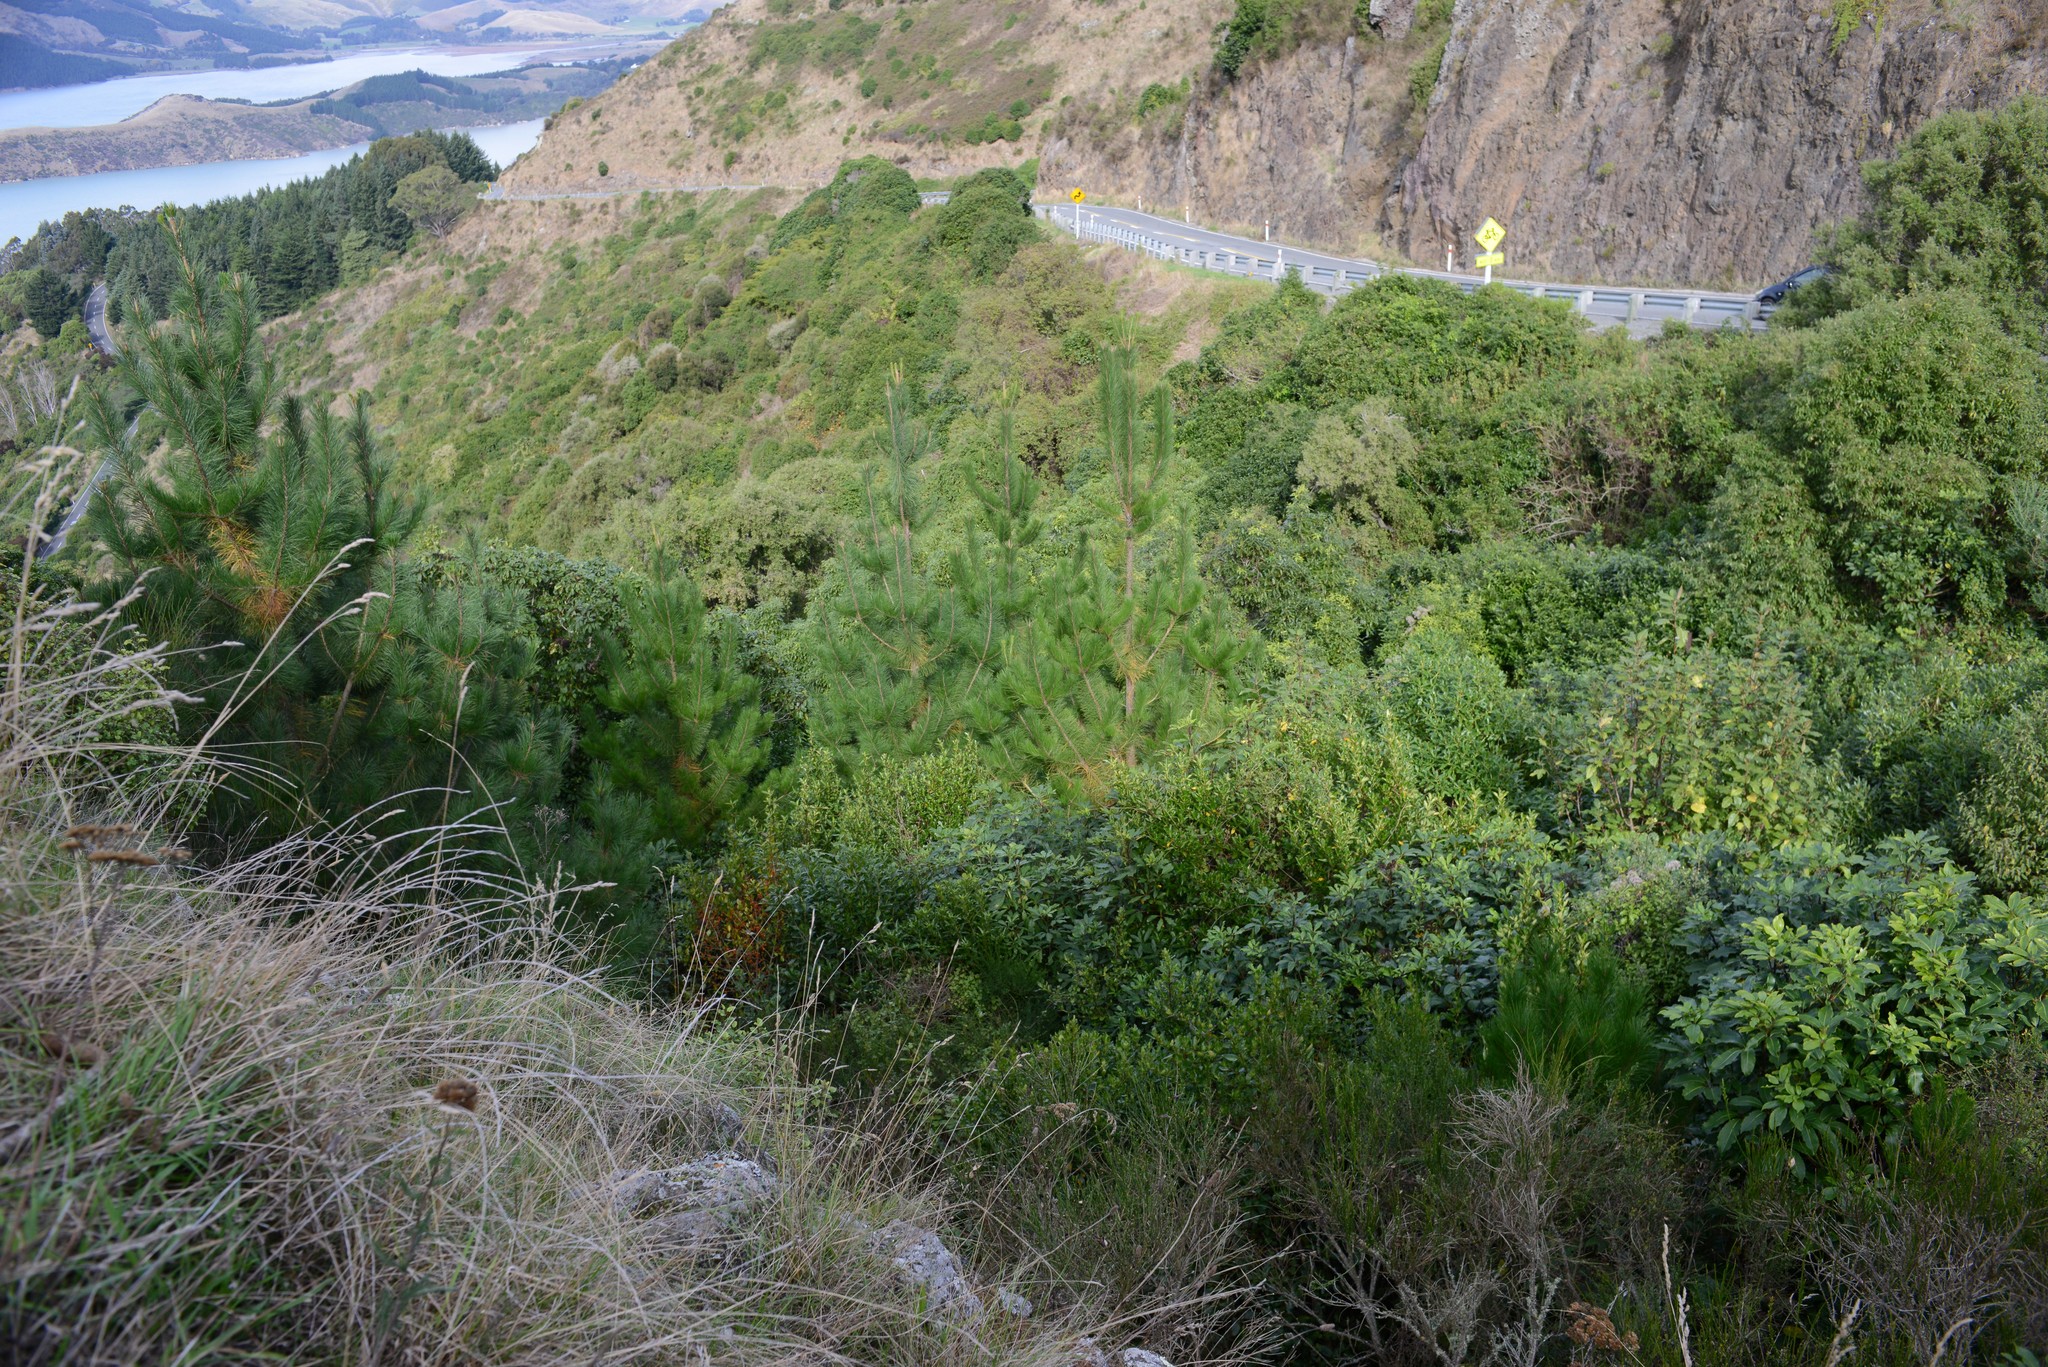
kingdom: Plantae
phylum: Tracheophyta
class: Pinopsida
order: Pinales
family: Pinaceae
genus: Pinus
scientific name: Pinus radiata
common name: Monterey pine
